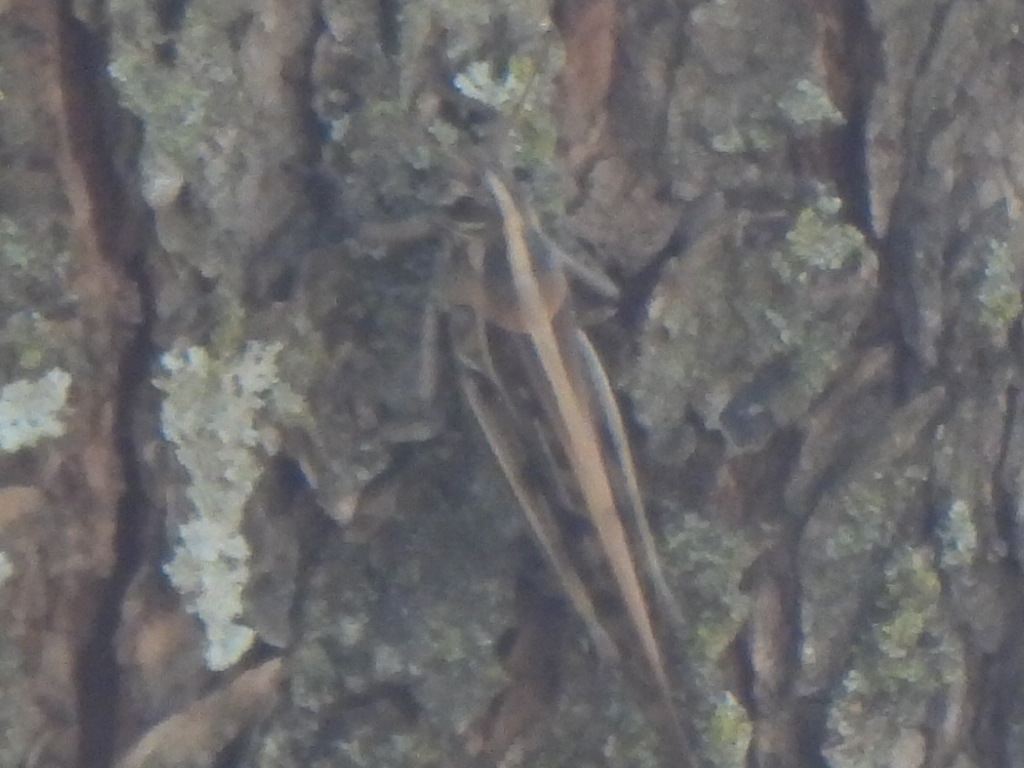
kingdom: Animalia
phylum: Arthropoda
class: Insecta
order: Orthoptera
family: Acrididae
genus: Schistocerca
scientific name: Schistocerca americana
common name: American bird locust
